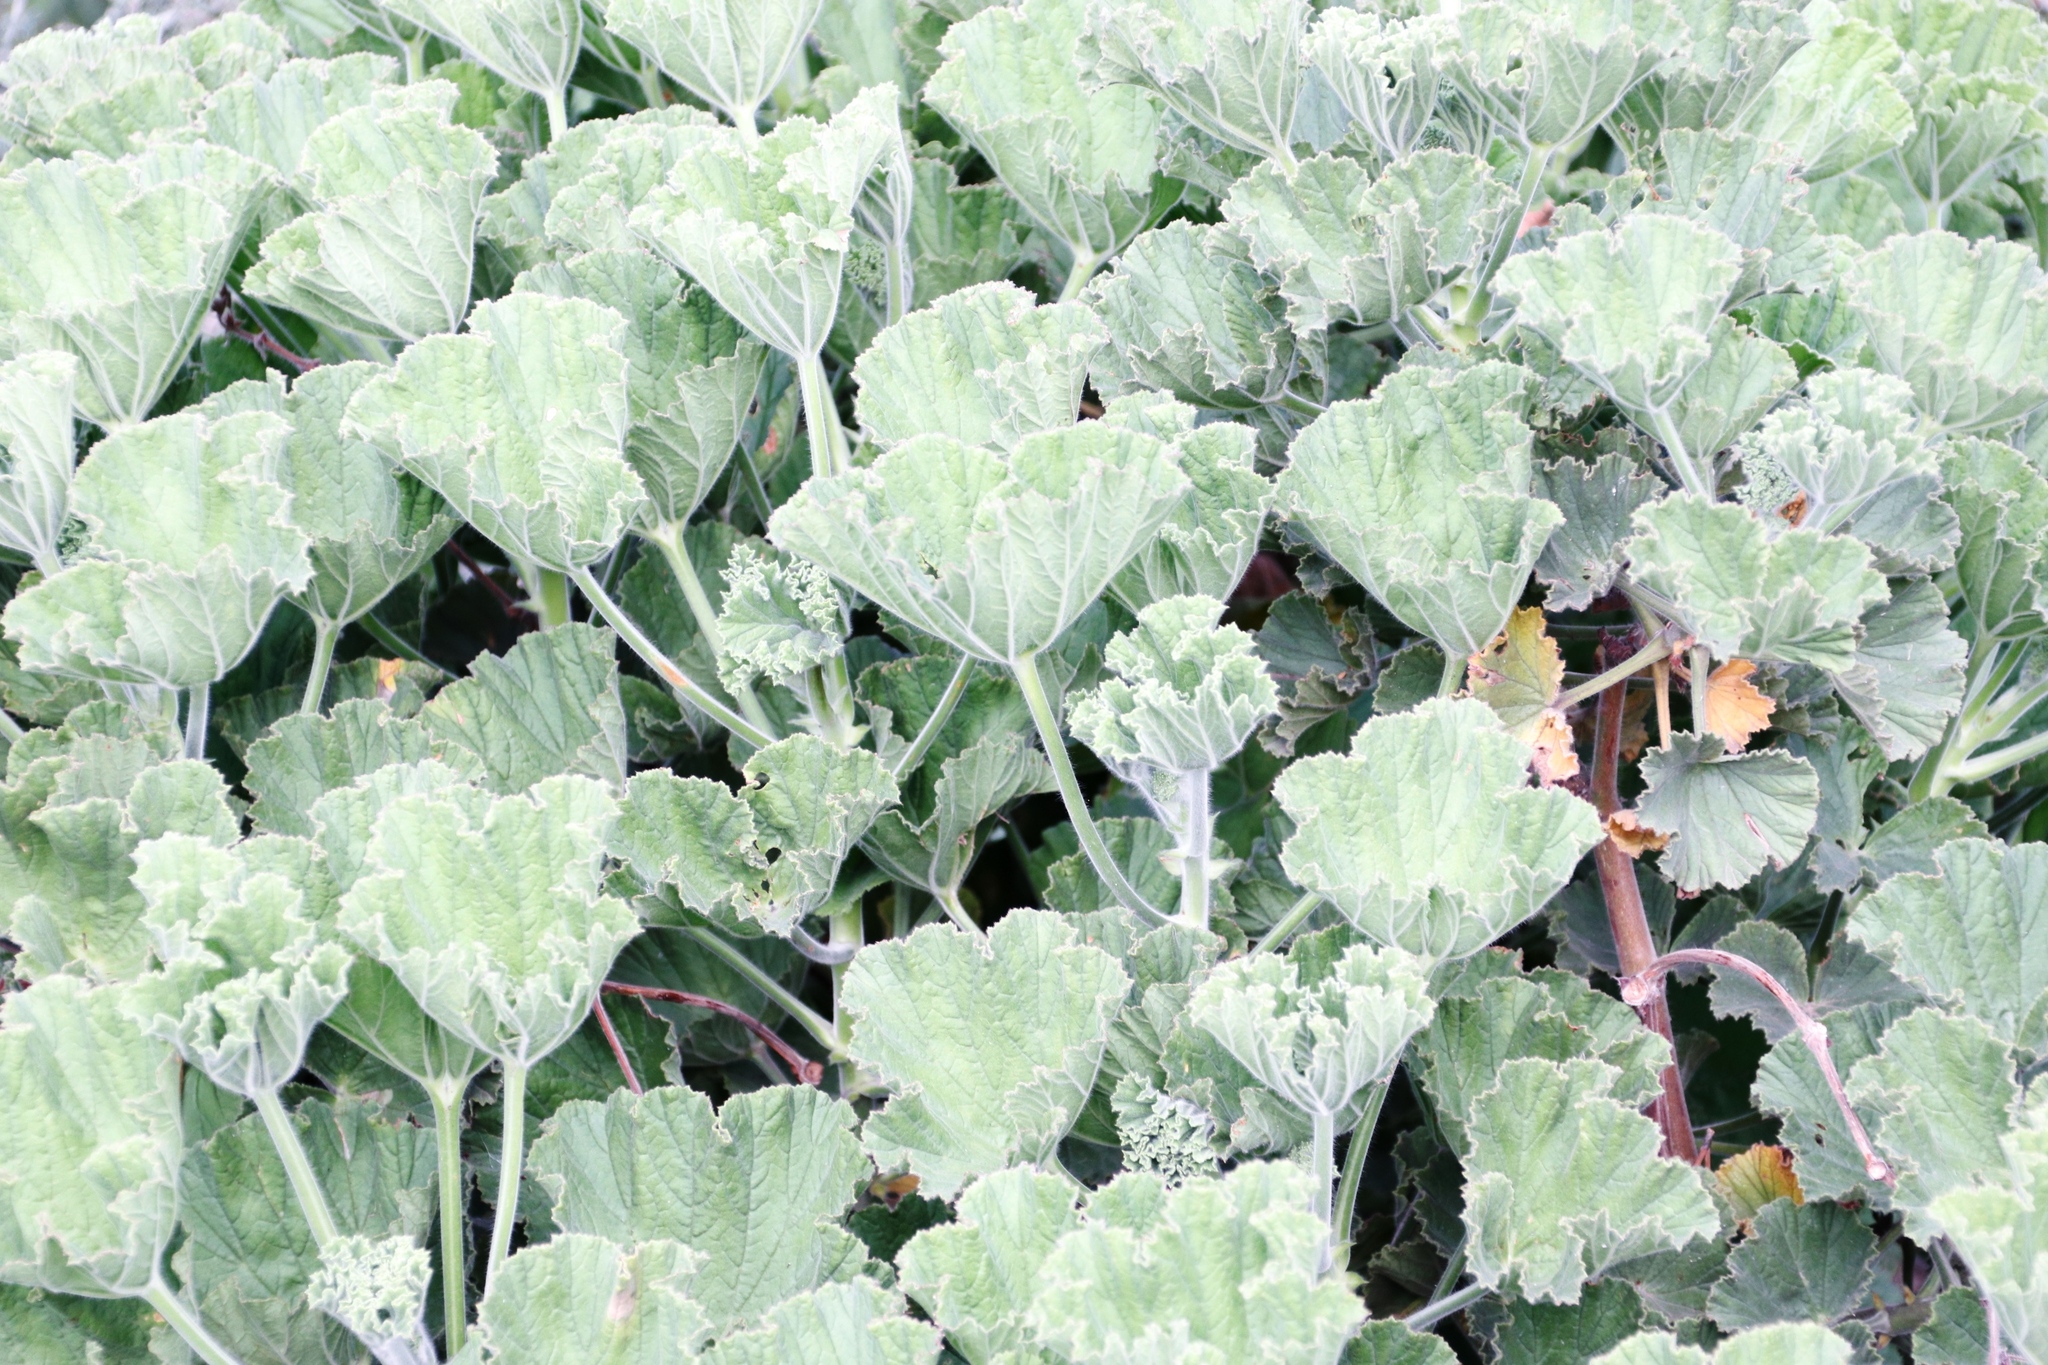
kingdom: Plantae
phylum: Tracheophyta
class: Magnoliopsida
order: Geraniales
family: Geraniaceae
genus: Pelargonium
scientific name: Pelargonium cucullatum
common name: Tree pelargonium
